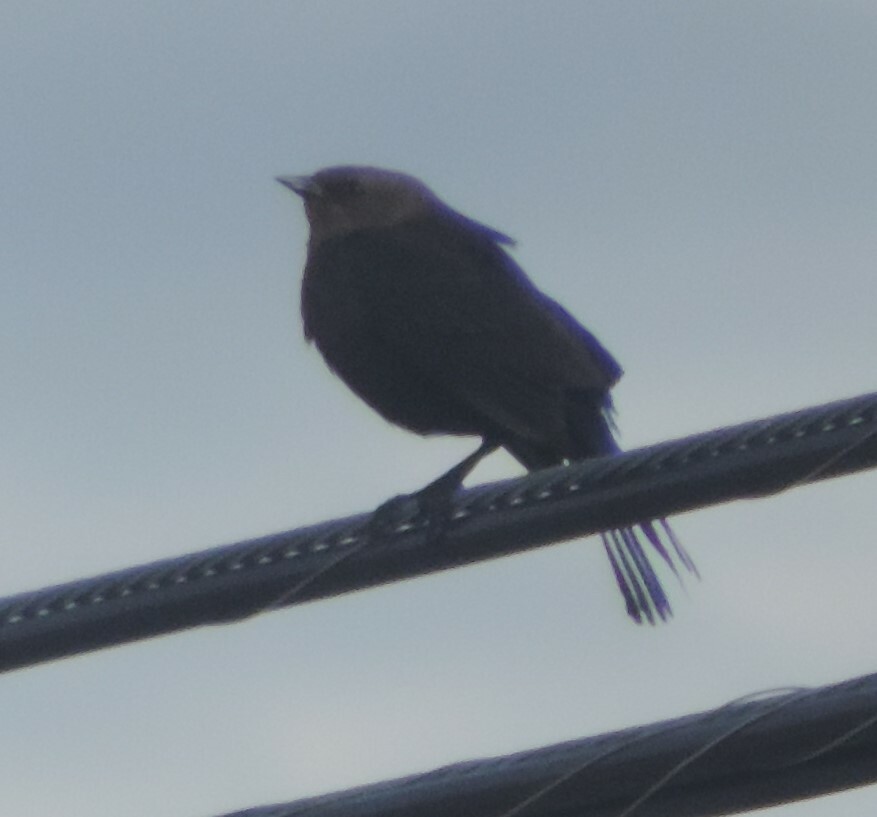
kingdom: Animalia
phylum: Chordata
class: Aves
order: Passeriformes
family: Icteridae
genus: Molothrus
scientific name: Molothrus ater
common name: Brown-headed cowbird
